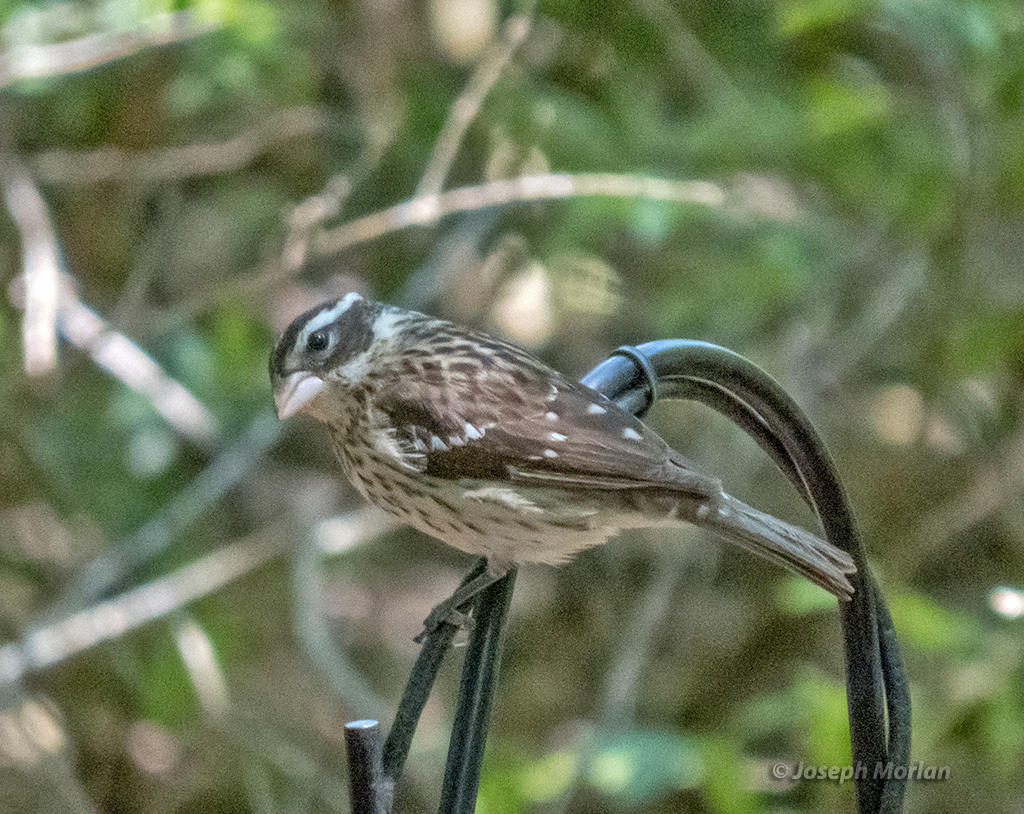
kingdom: Animalia
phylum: Chordata
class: Aves
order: Passeriformes
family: Cardinalidae
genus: Pheucticus
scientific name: Pheucticus ludovicianus
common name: Rose-breasted grosbeak
